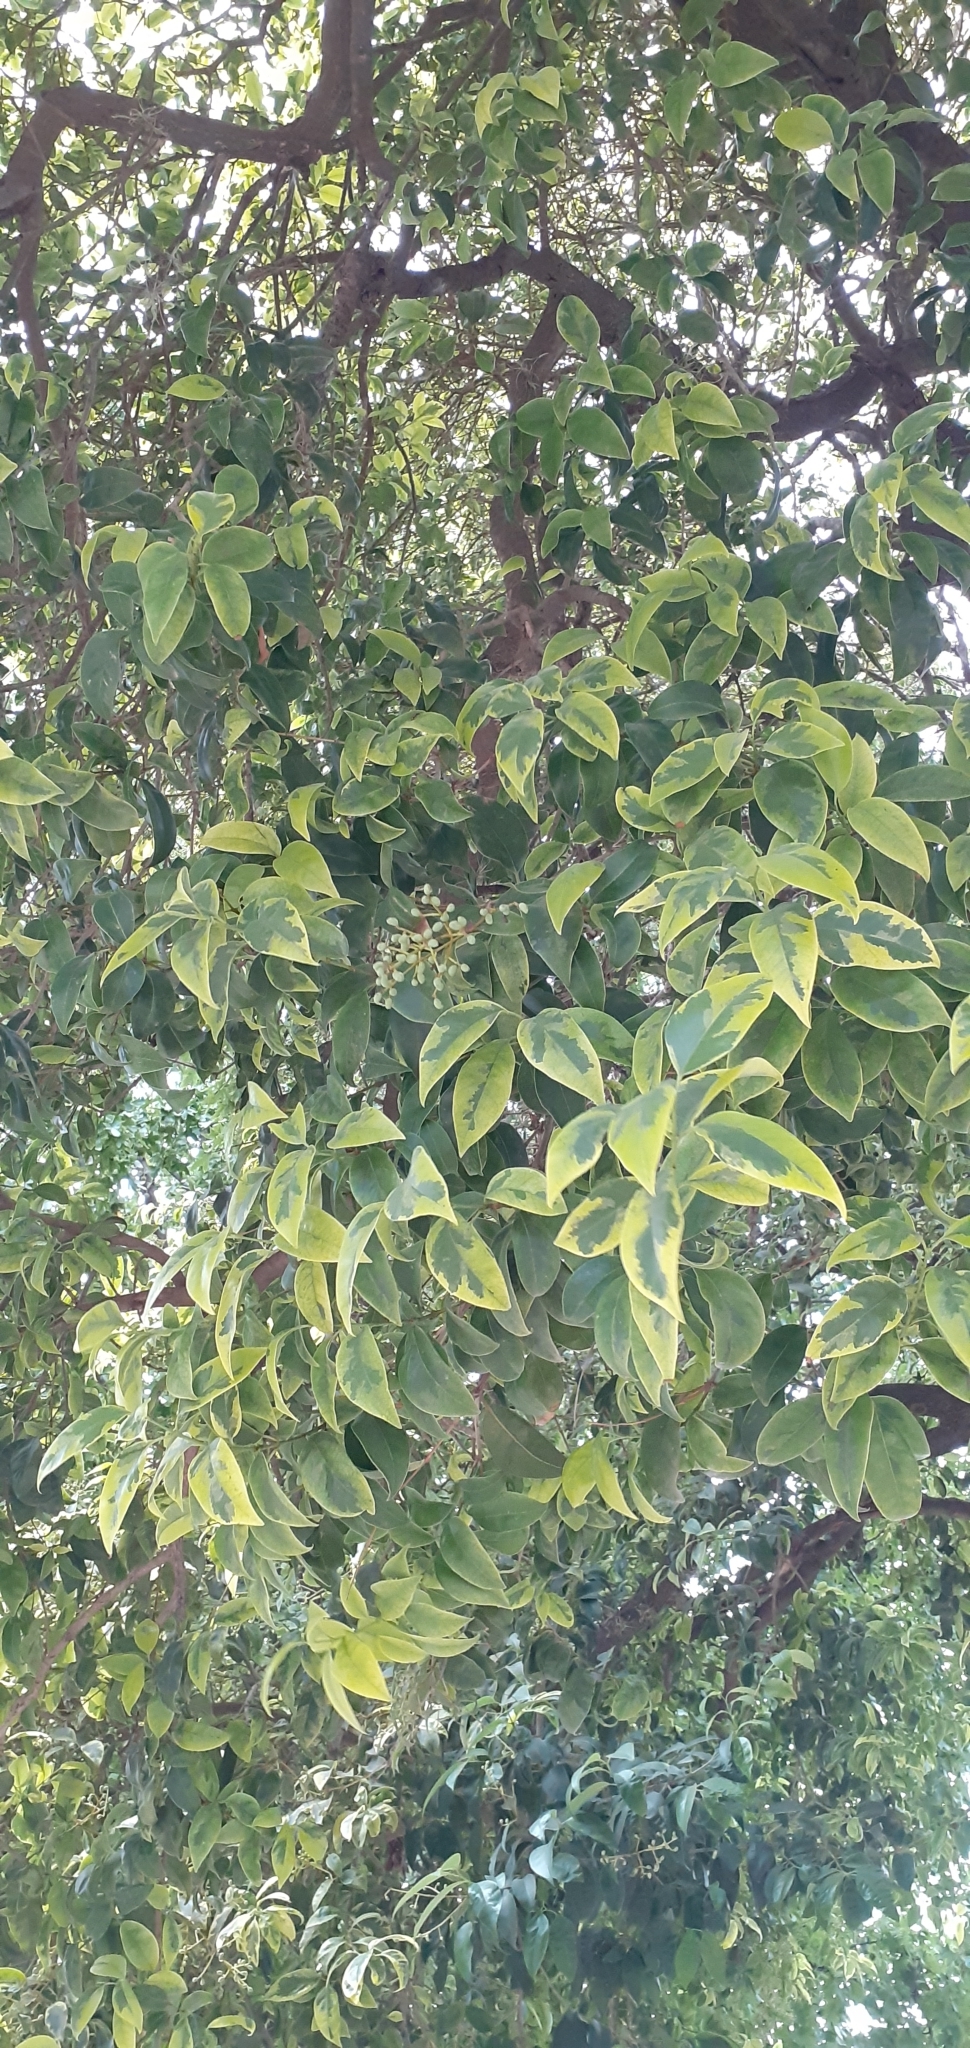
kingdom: Plantae
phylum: Tracheophyta
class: Magnoliopsida
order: Lamiales
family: Oleaceae
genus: Ligustrum
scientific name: Ligustrum lucidum
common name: Glossy privet
